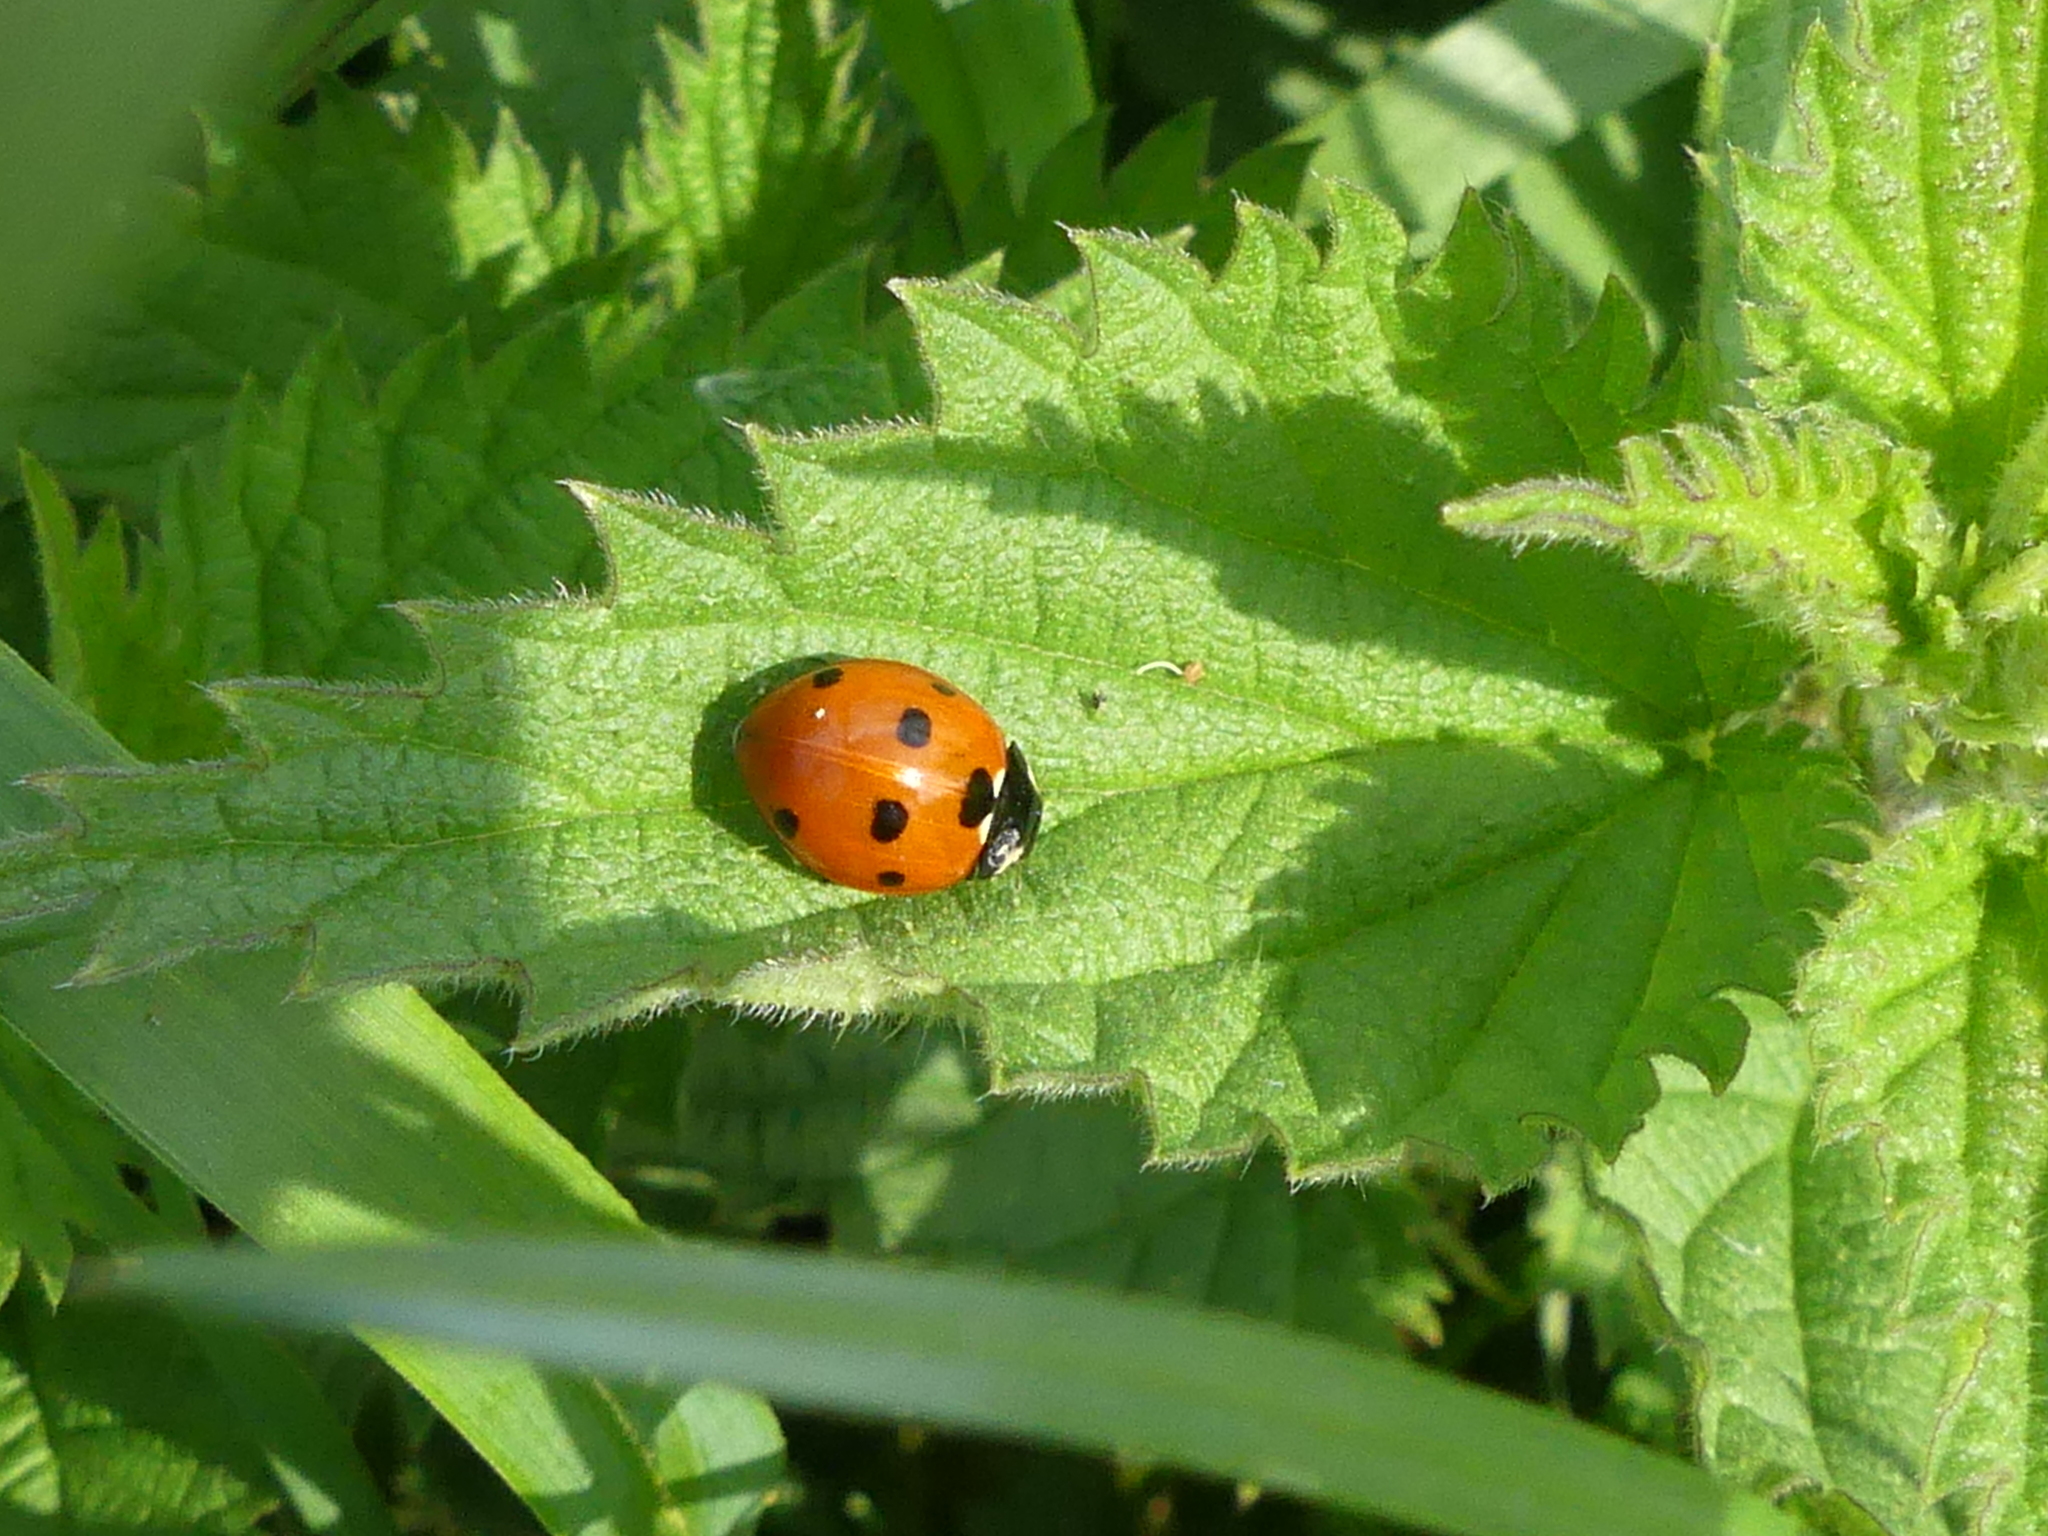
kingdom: Animalia
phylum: Arthropoda
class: Insecta
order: Coleoptera
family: Coccinellidae
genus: Coccinella
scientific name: Coccinella septempunctata
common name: Sevenspotted lady beetle
